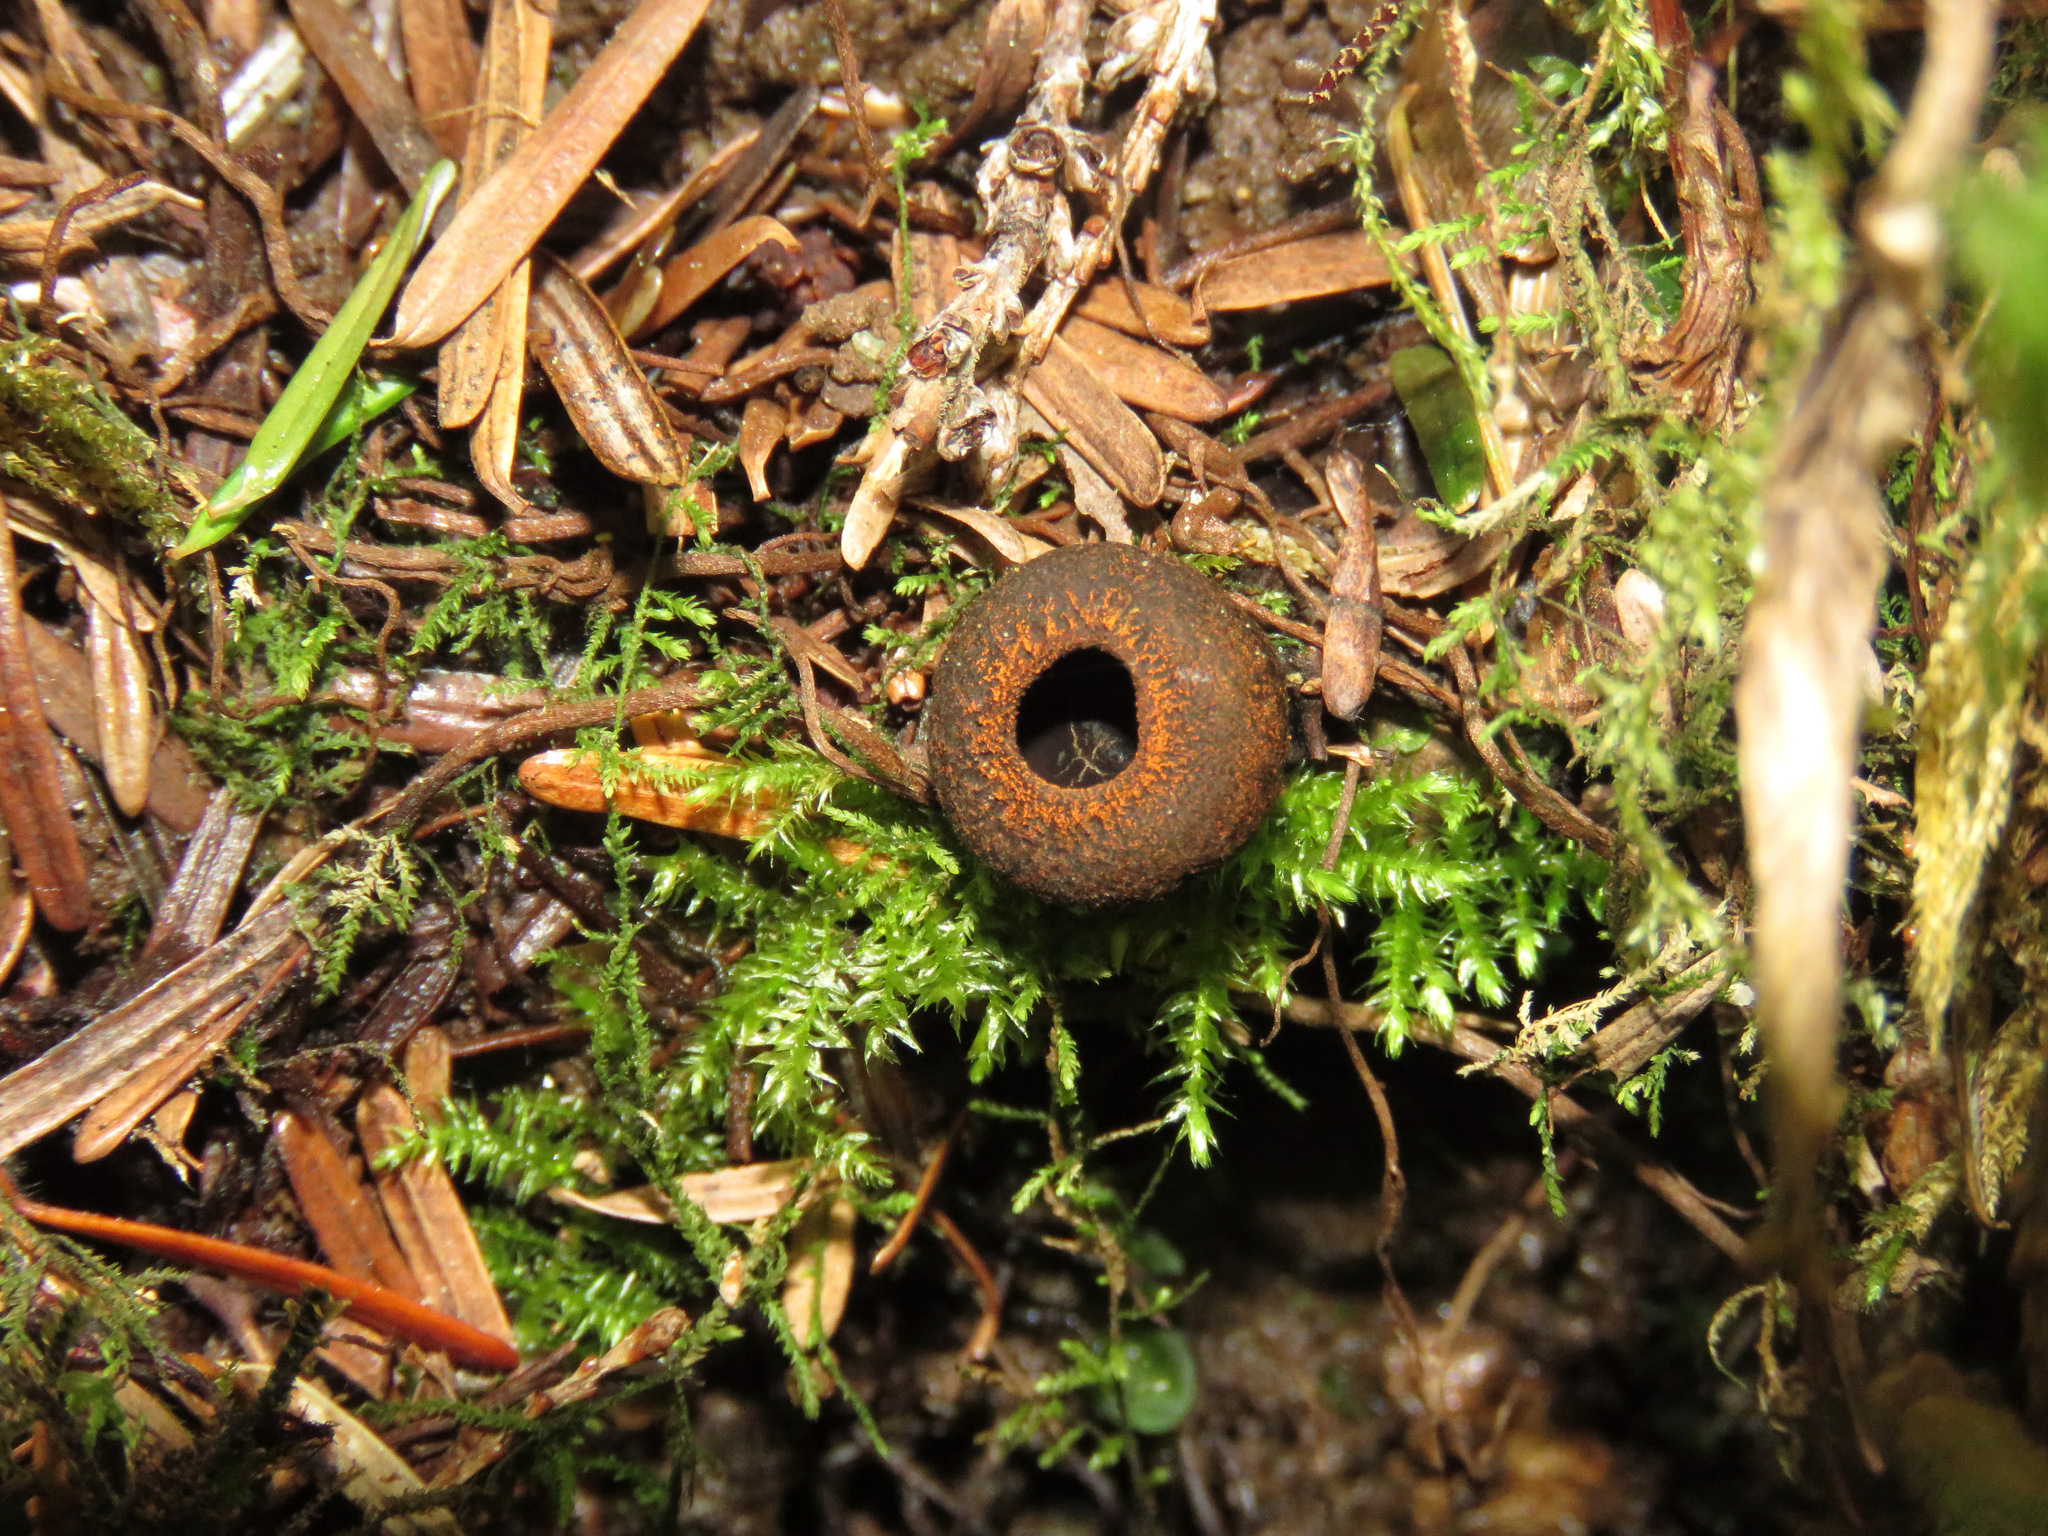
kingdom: Fungi
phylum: Ascomycota
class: Pezizomycetes
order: Pezizales
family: Sarcosomataceae
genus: Plectania
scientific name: Plectania melastoma
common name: Corona cup
